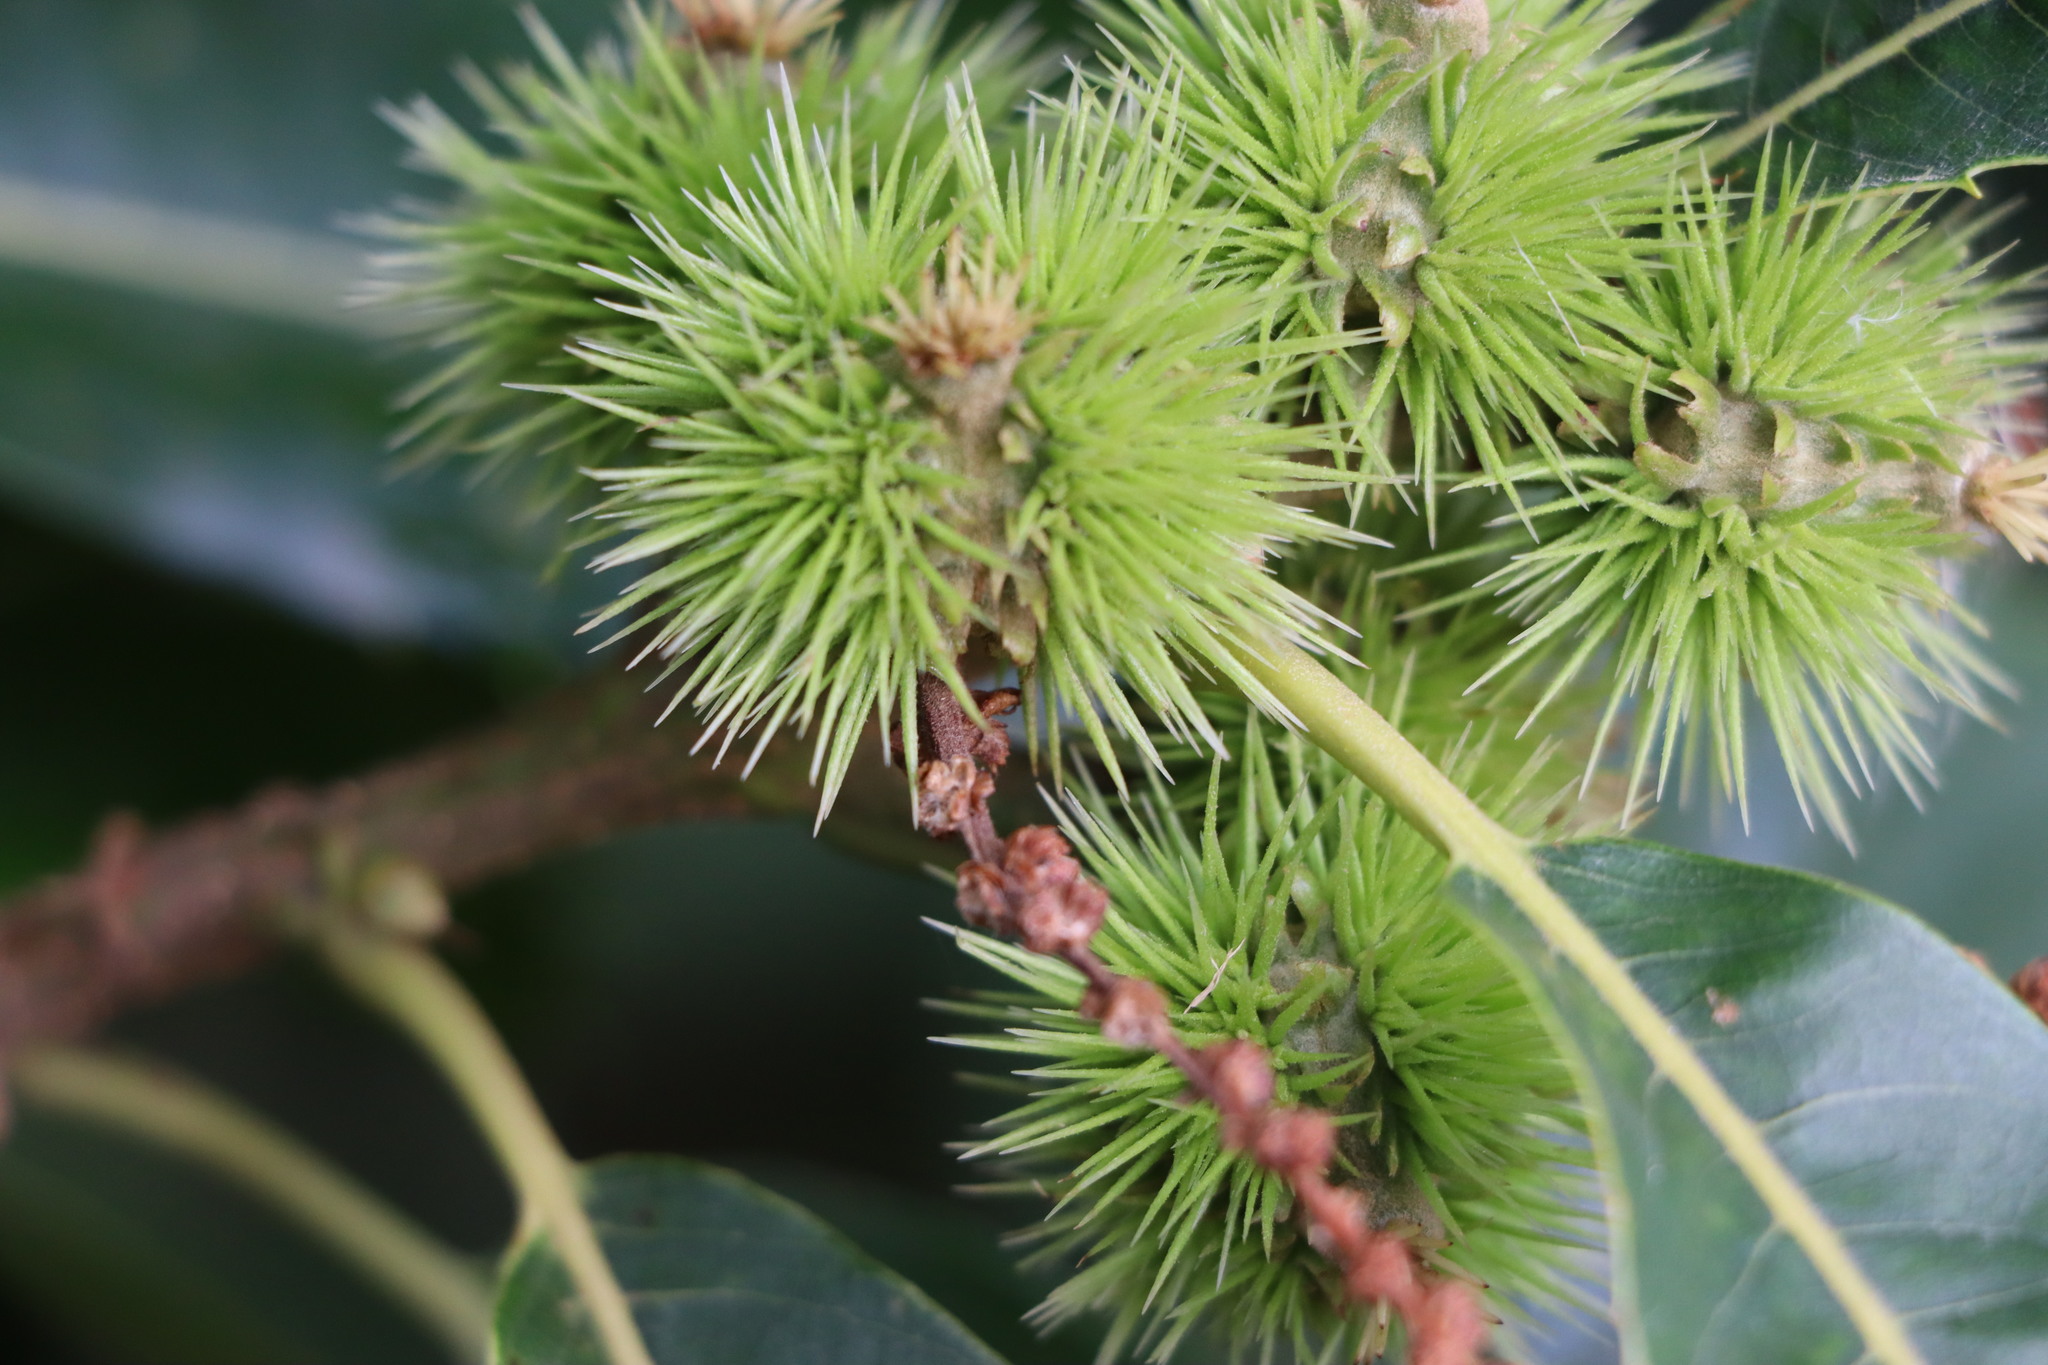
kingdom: Plantae
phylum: Tracheophyta
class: Magnoliopsida
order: Fagales
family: Fagaceae
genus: Castanea
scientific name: Castanea sativa
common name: Sweet chestnut
